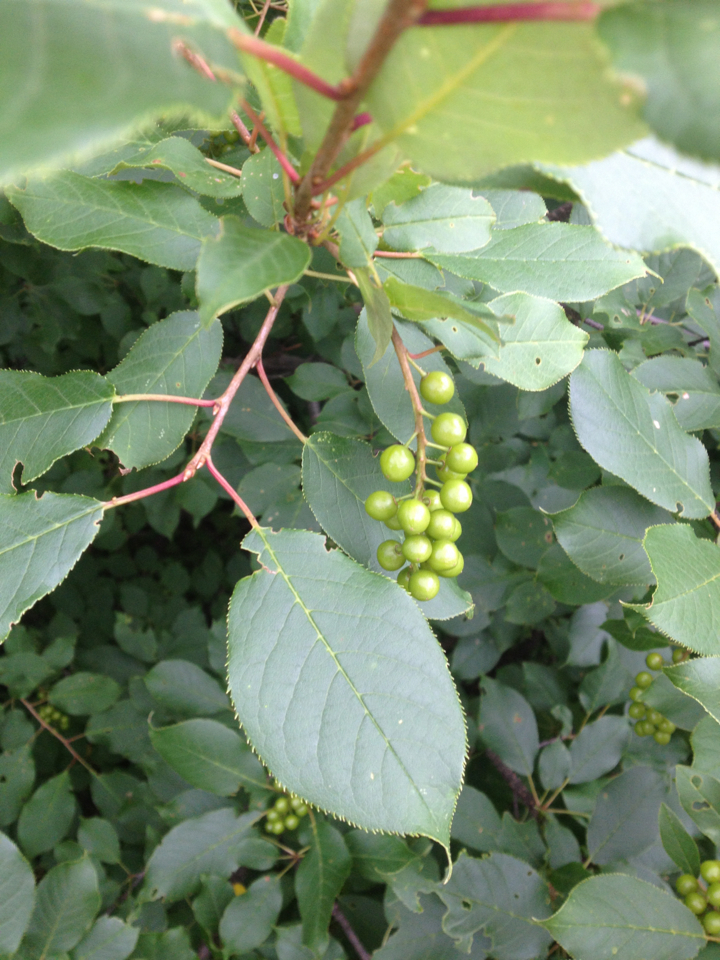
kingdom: Plantae
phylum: Tracheophyta
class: Magnoliopsida
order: Rosales
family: Rosaceae
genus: Prunus
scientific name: Prunus virginiana
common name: Chokecherry
